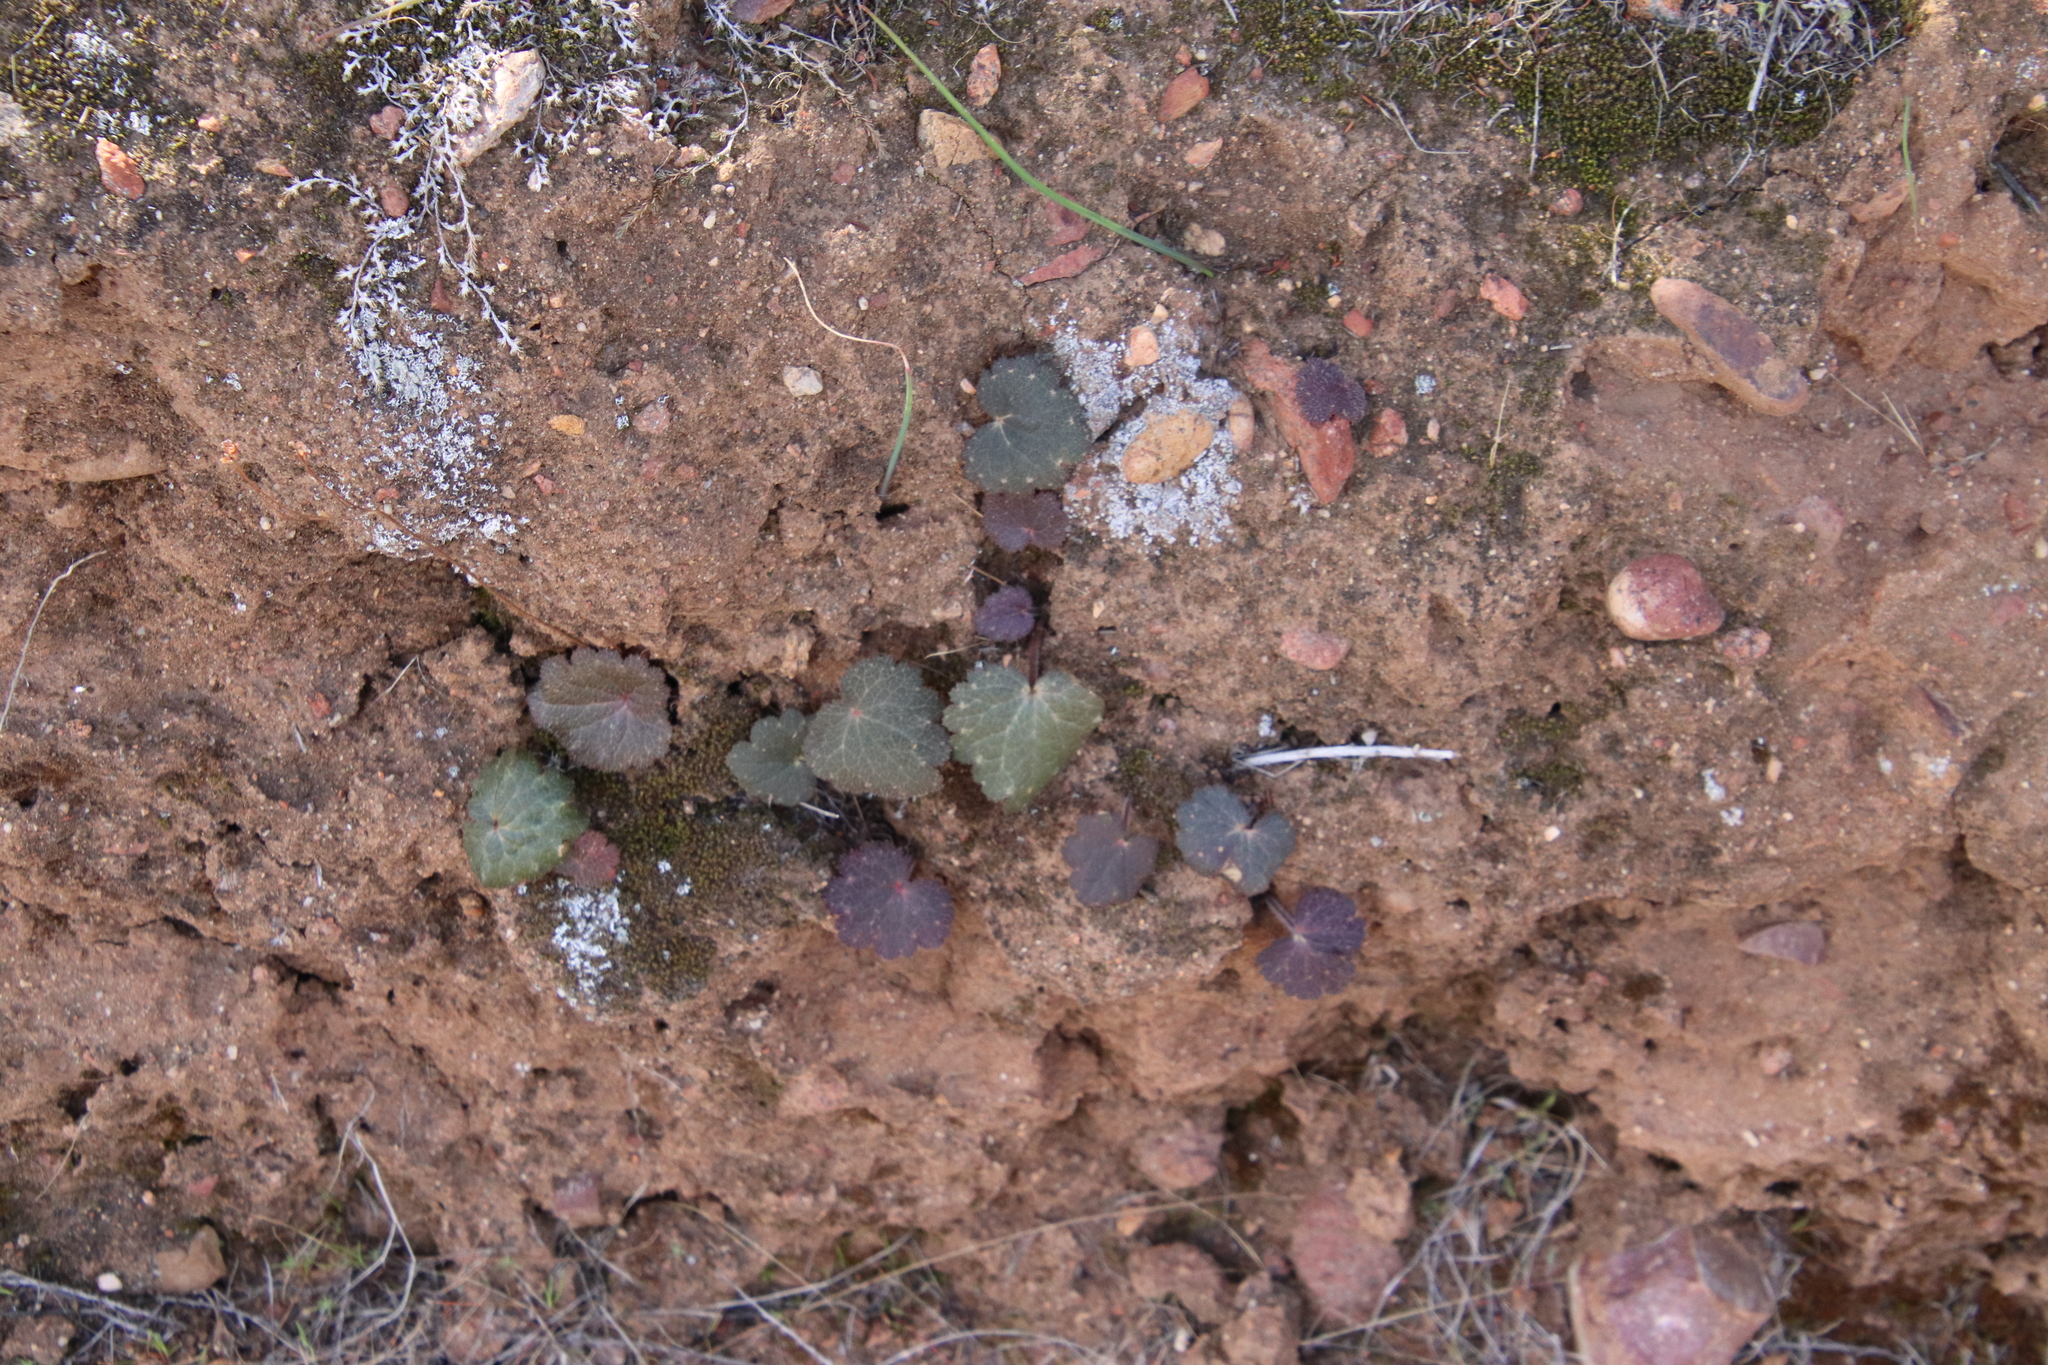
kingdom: Plantae
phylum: Tracheophyta
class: Magnoliopsida
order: Saxifragales
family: Saxifragaceae
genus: Jepsonia
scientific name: Jepsonia parryi
